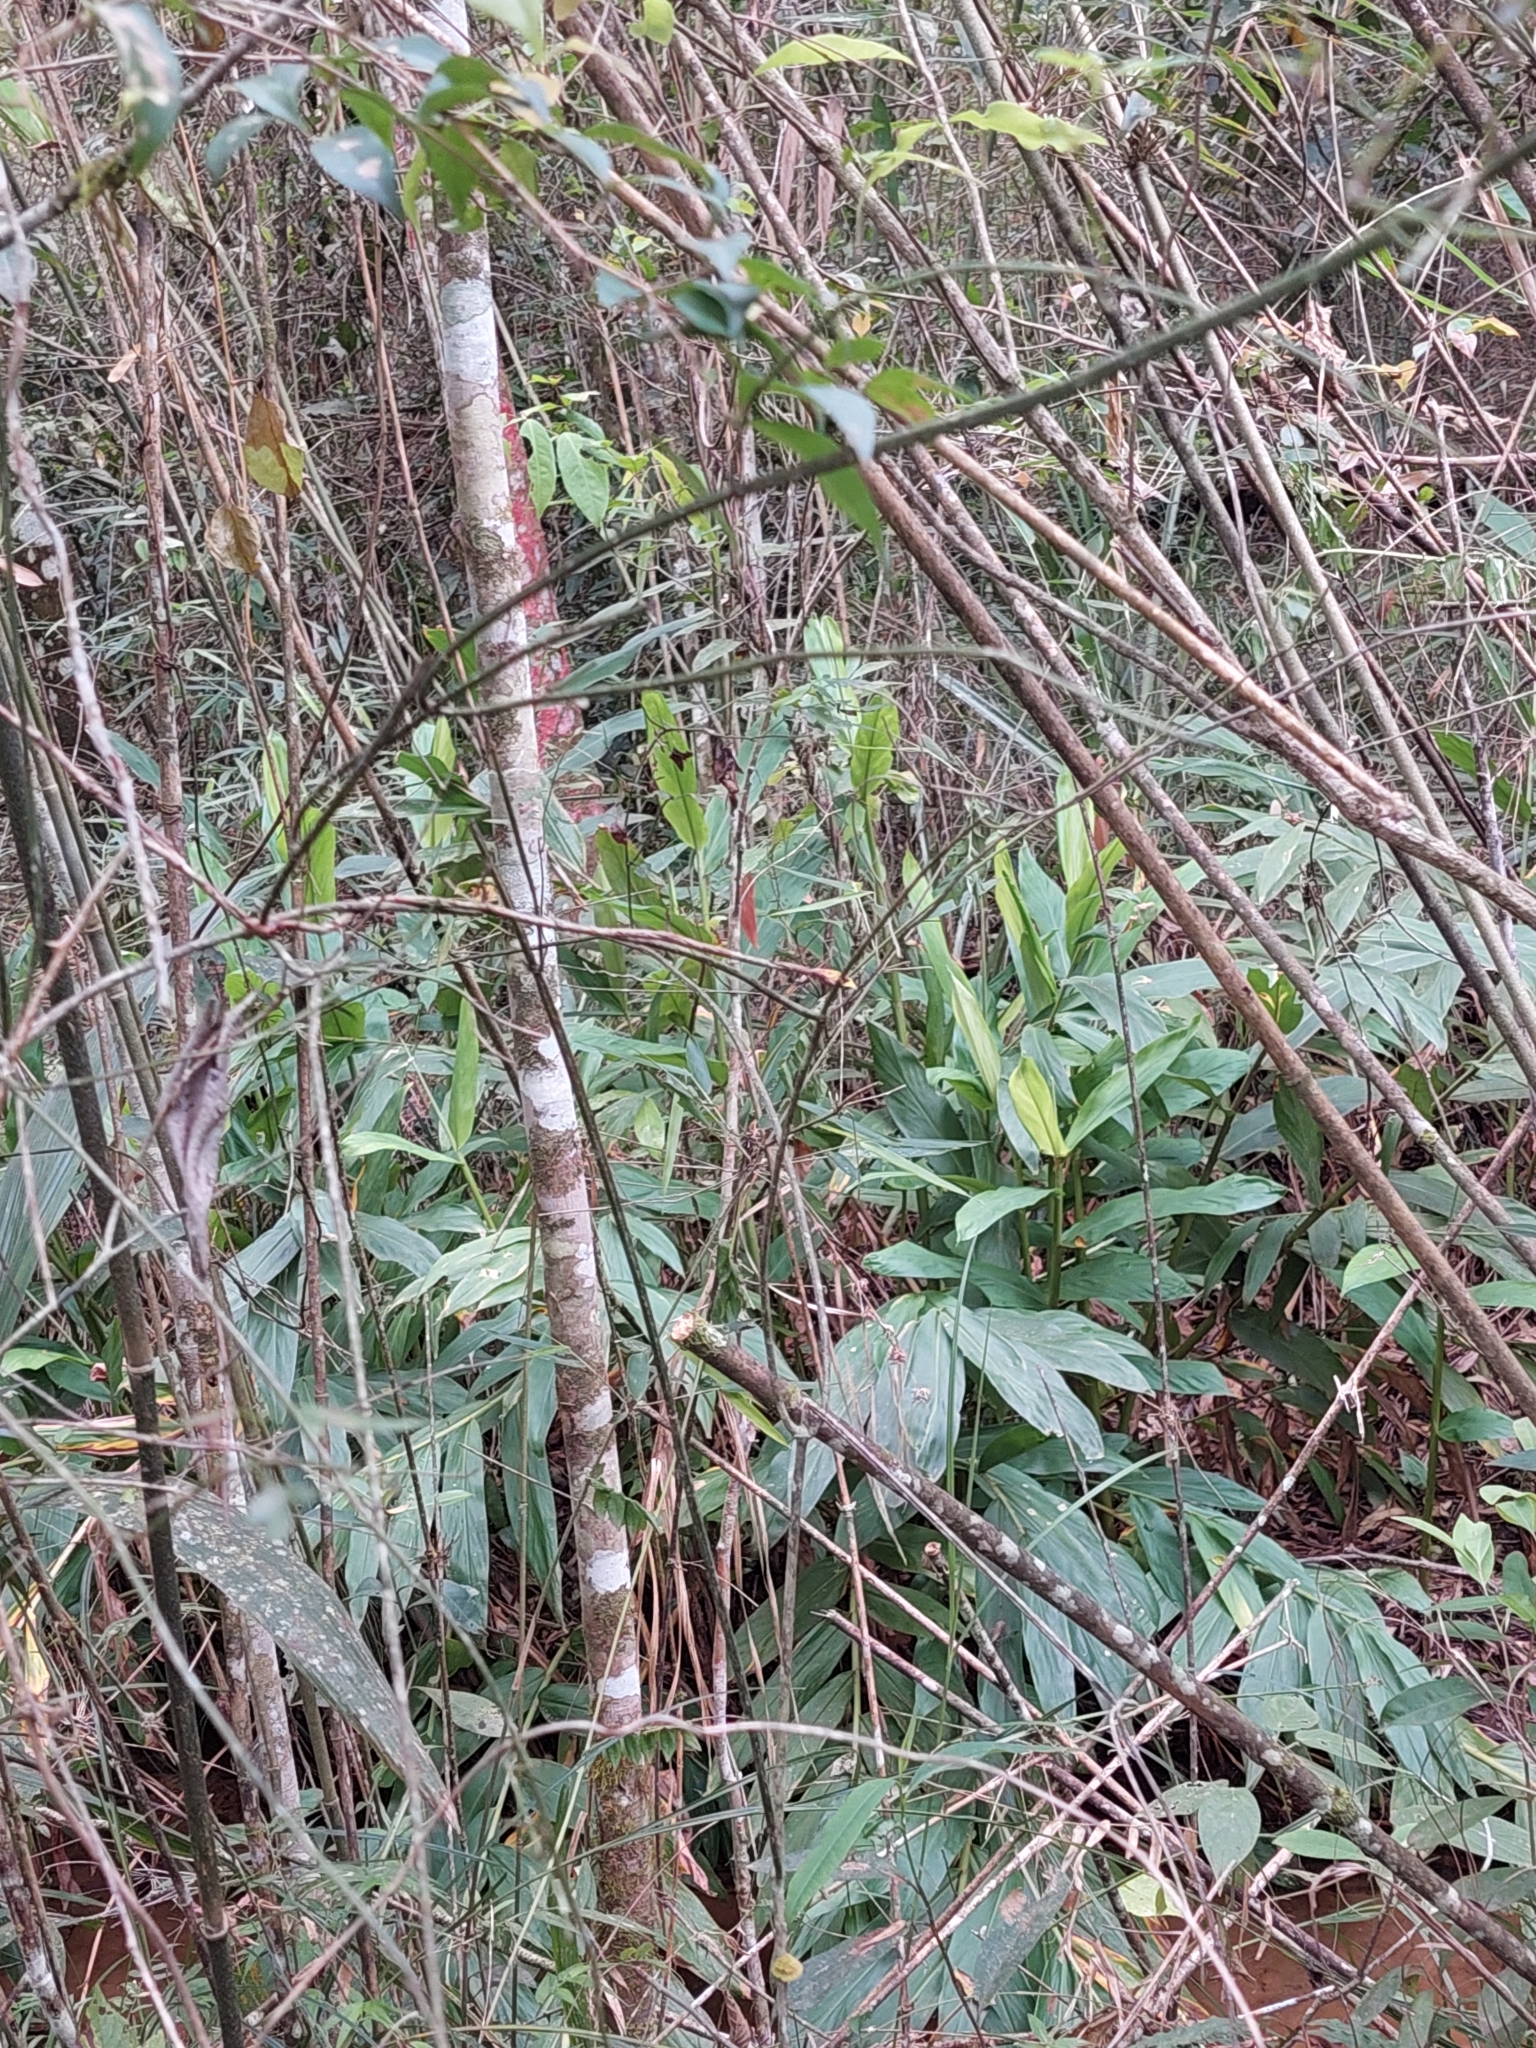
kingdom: Plantae
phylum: Tracheophyta
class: Liliopsida
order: Zingiberales
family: Zingiberaceae
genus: Hedychium
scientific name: Hedychium coronarium
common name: White garland-lily
